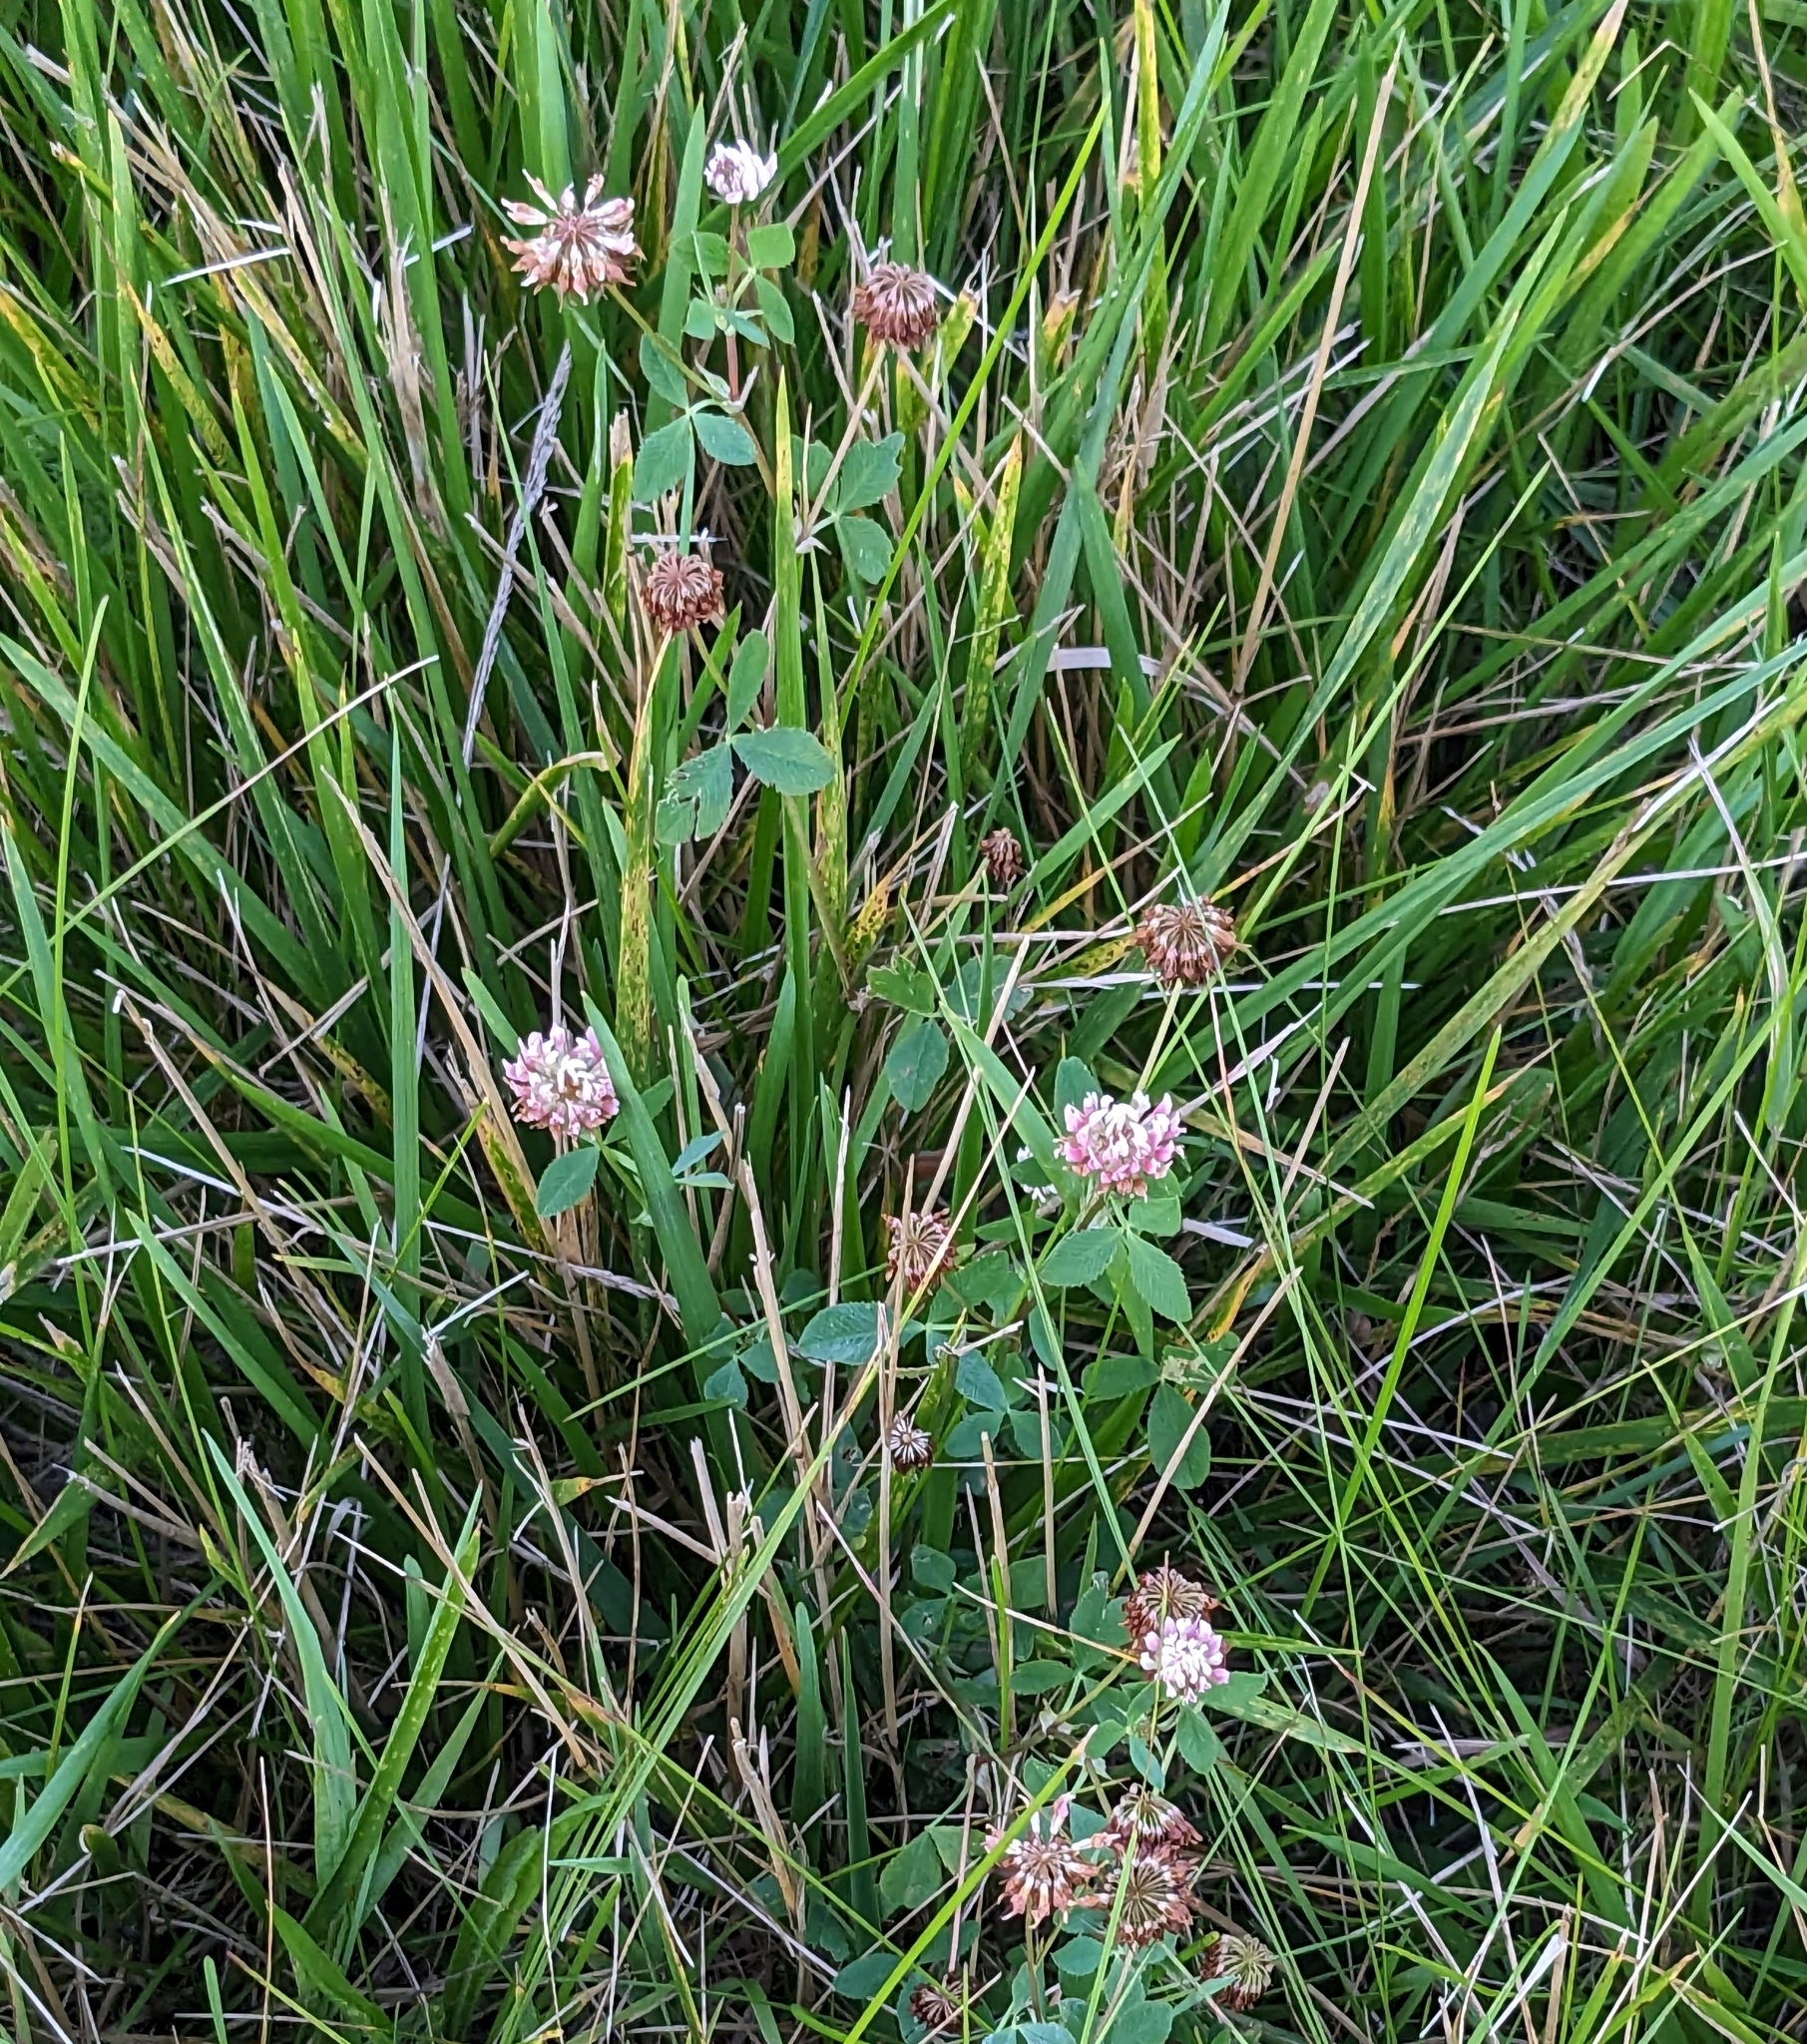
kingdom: Plantae
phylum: Tracheophyta
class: Magnoliopsida
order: Fabales
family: Fabaceae
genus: Trifolium
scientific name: Trifolium hybridum
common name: Alsike clover
